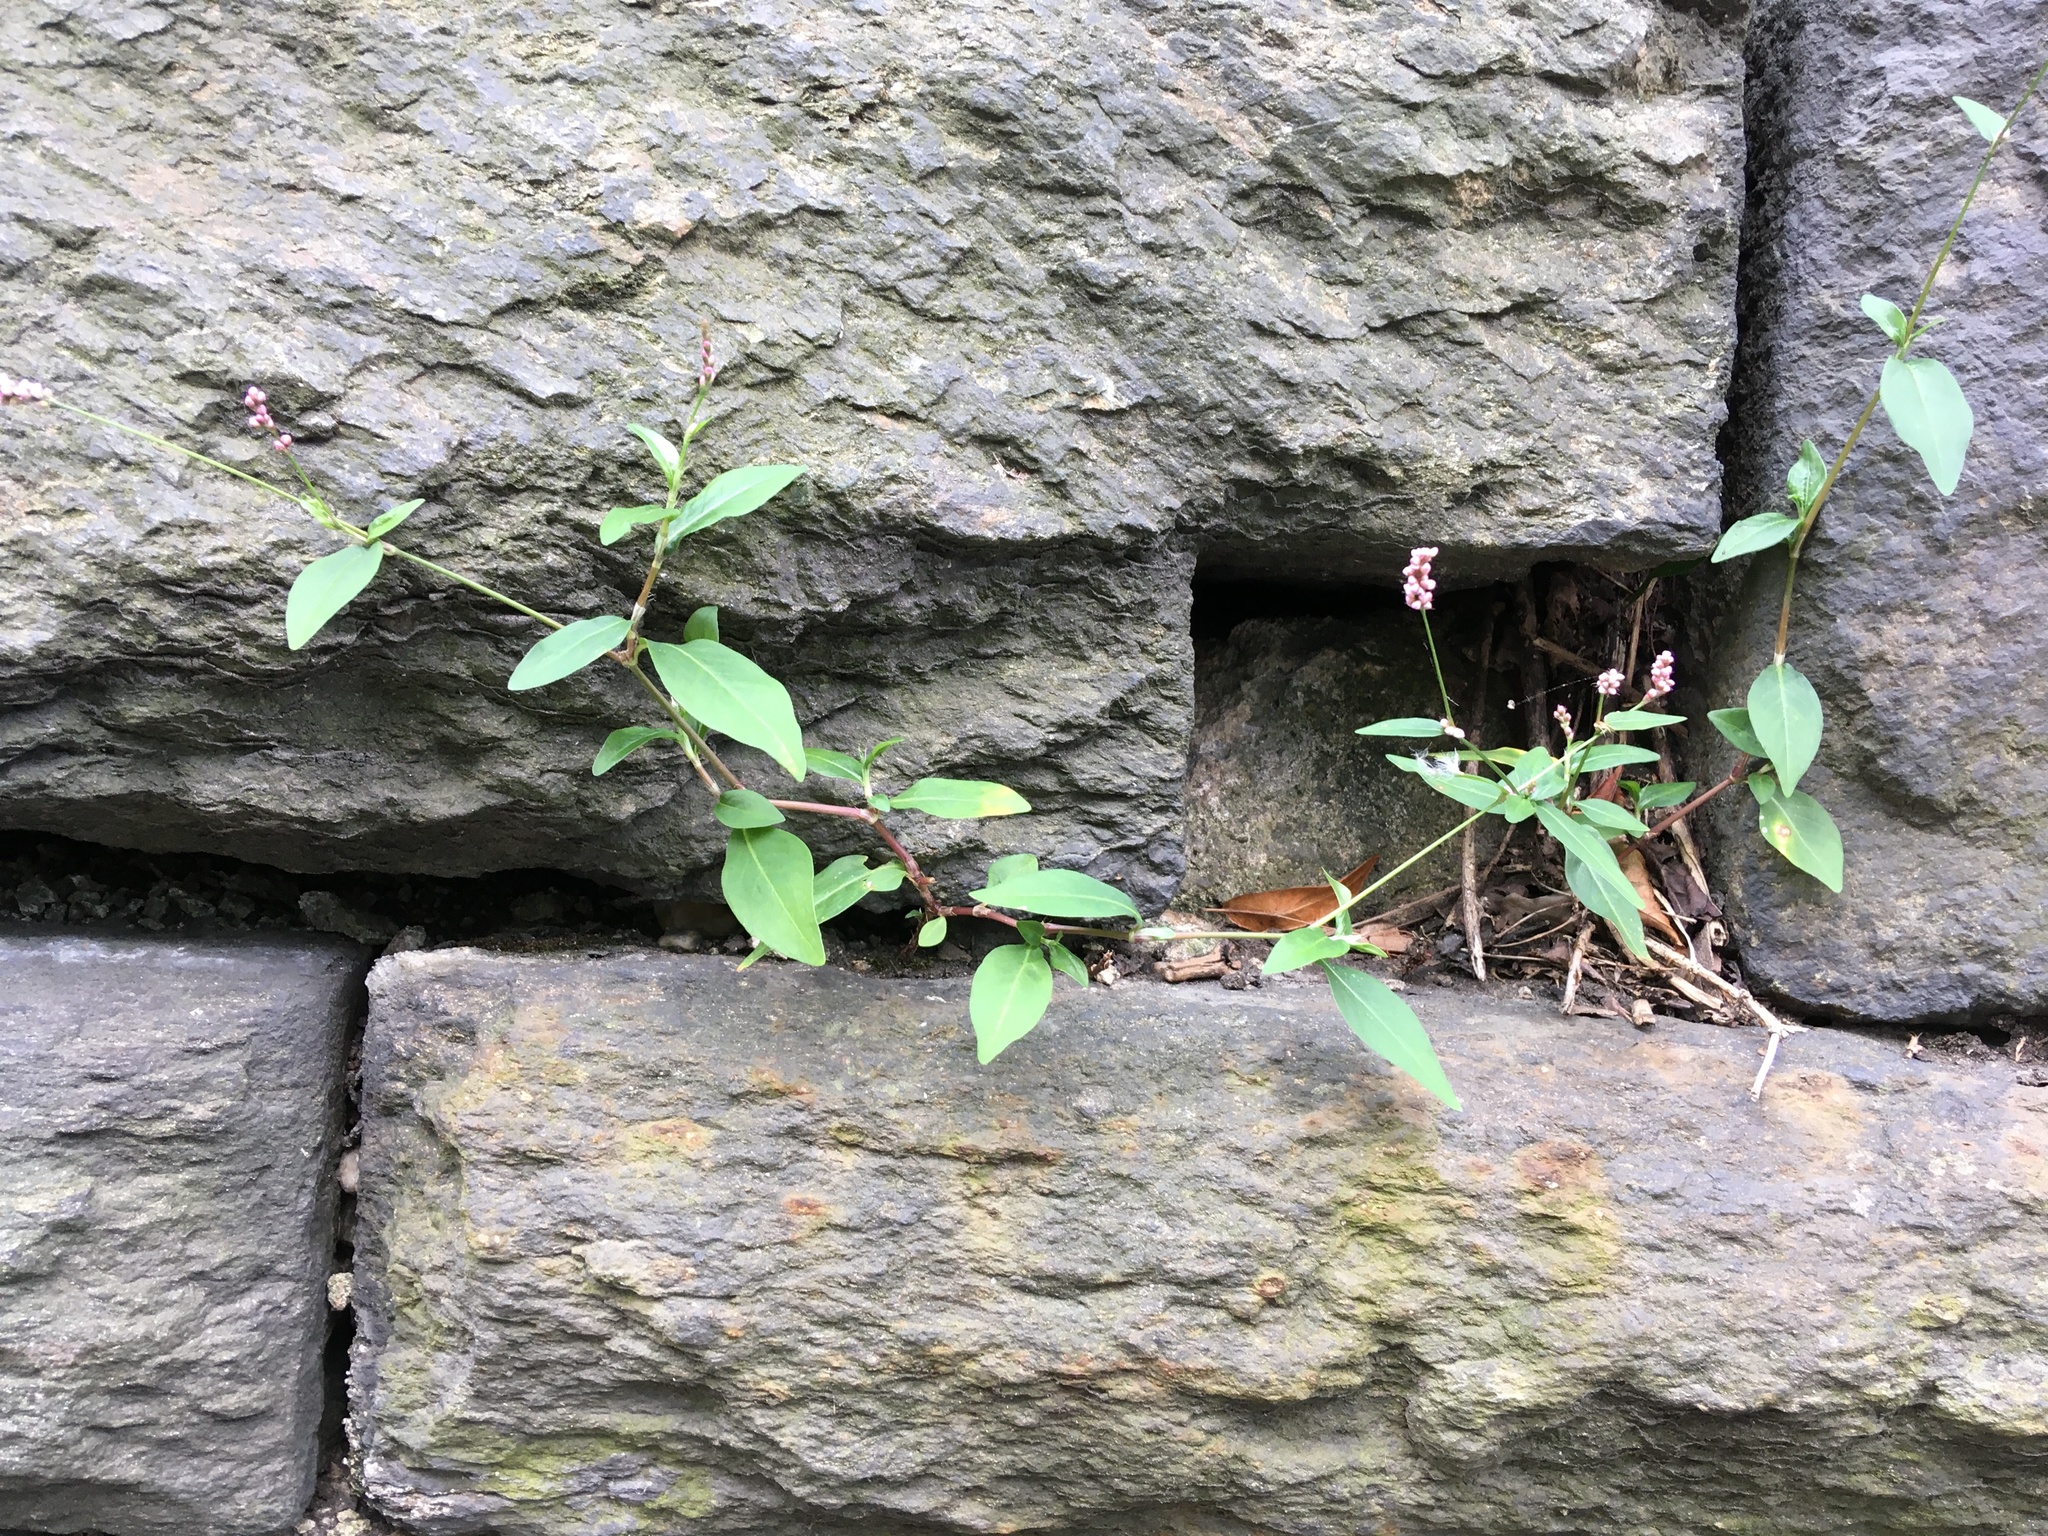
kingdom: Plantae
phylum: Tracheophyta
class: Magnoliopsida
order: Caryophyllales
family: Polygonaceae
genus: Persicaria
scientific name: Persicaria longiseta
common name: Bristly lady's-thumb
